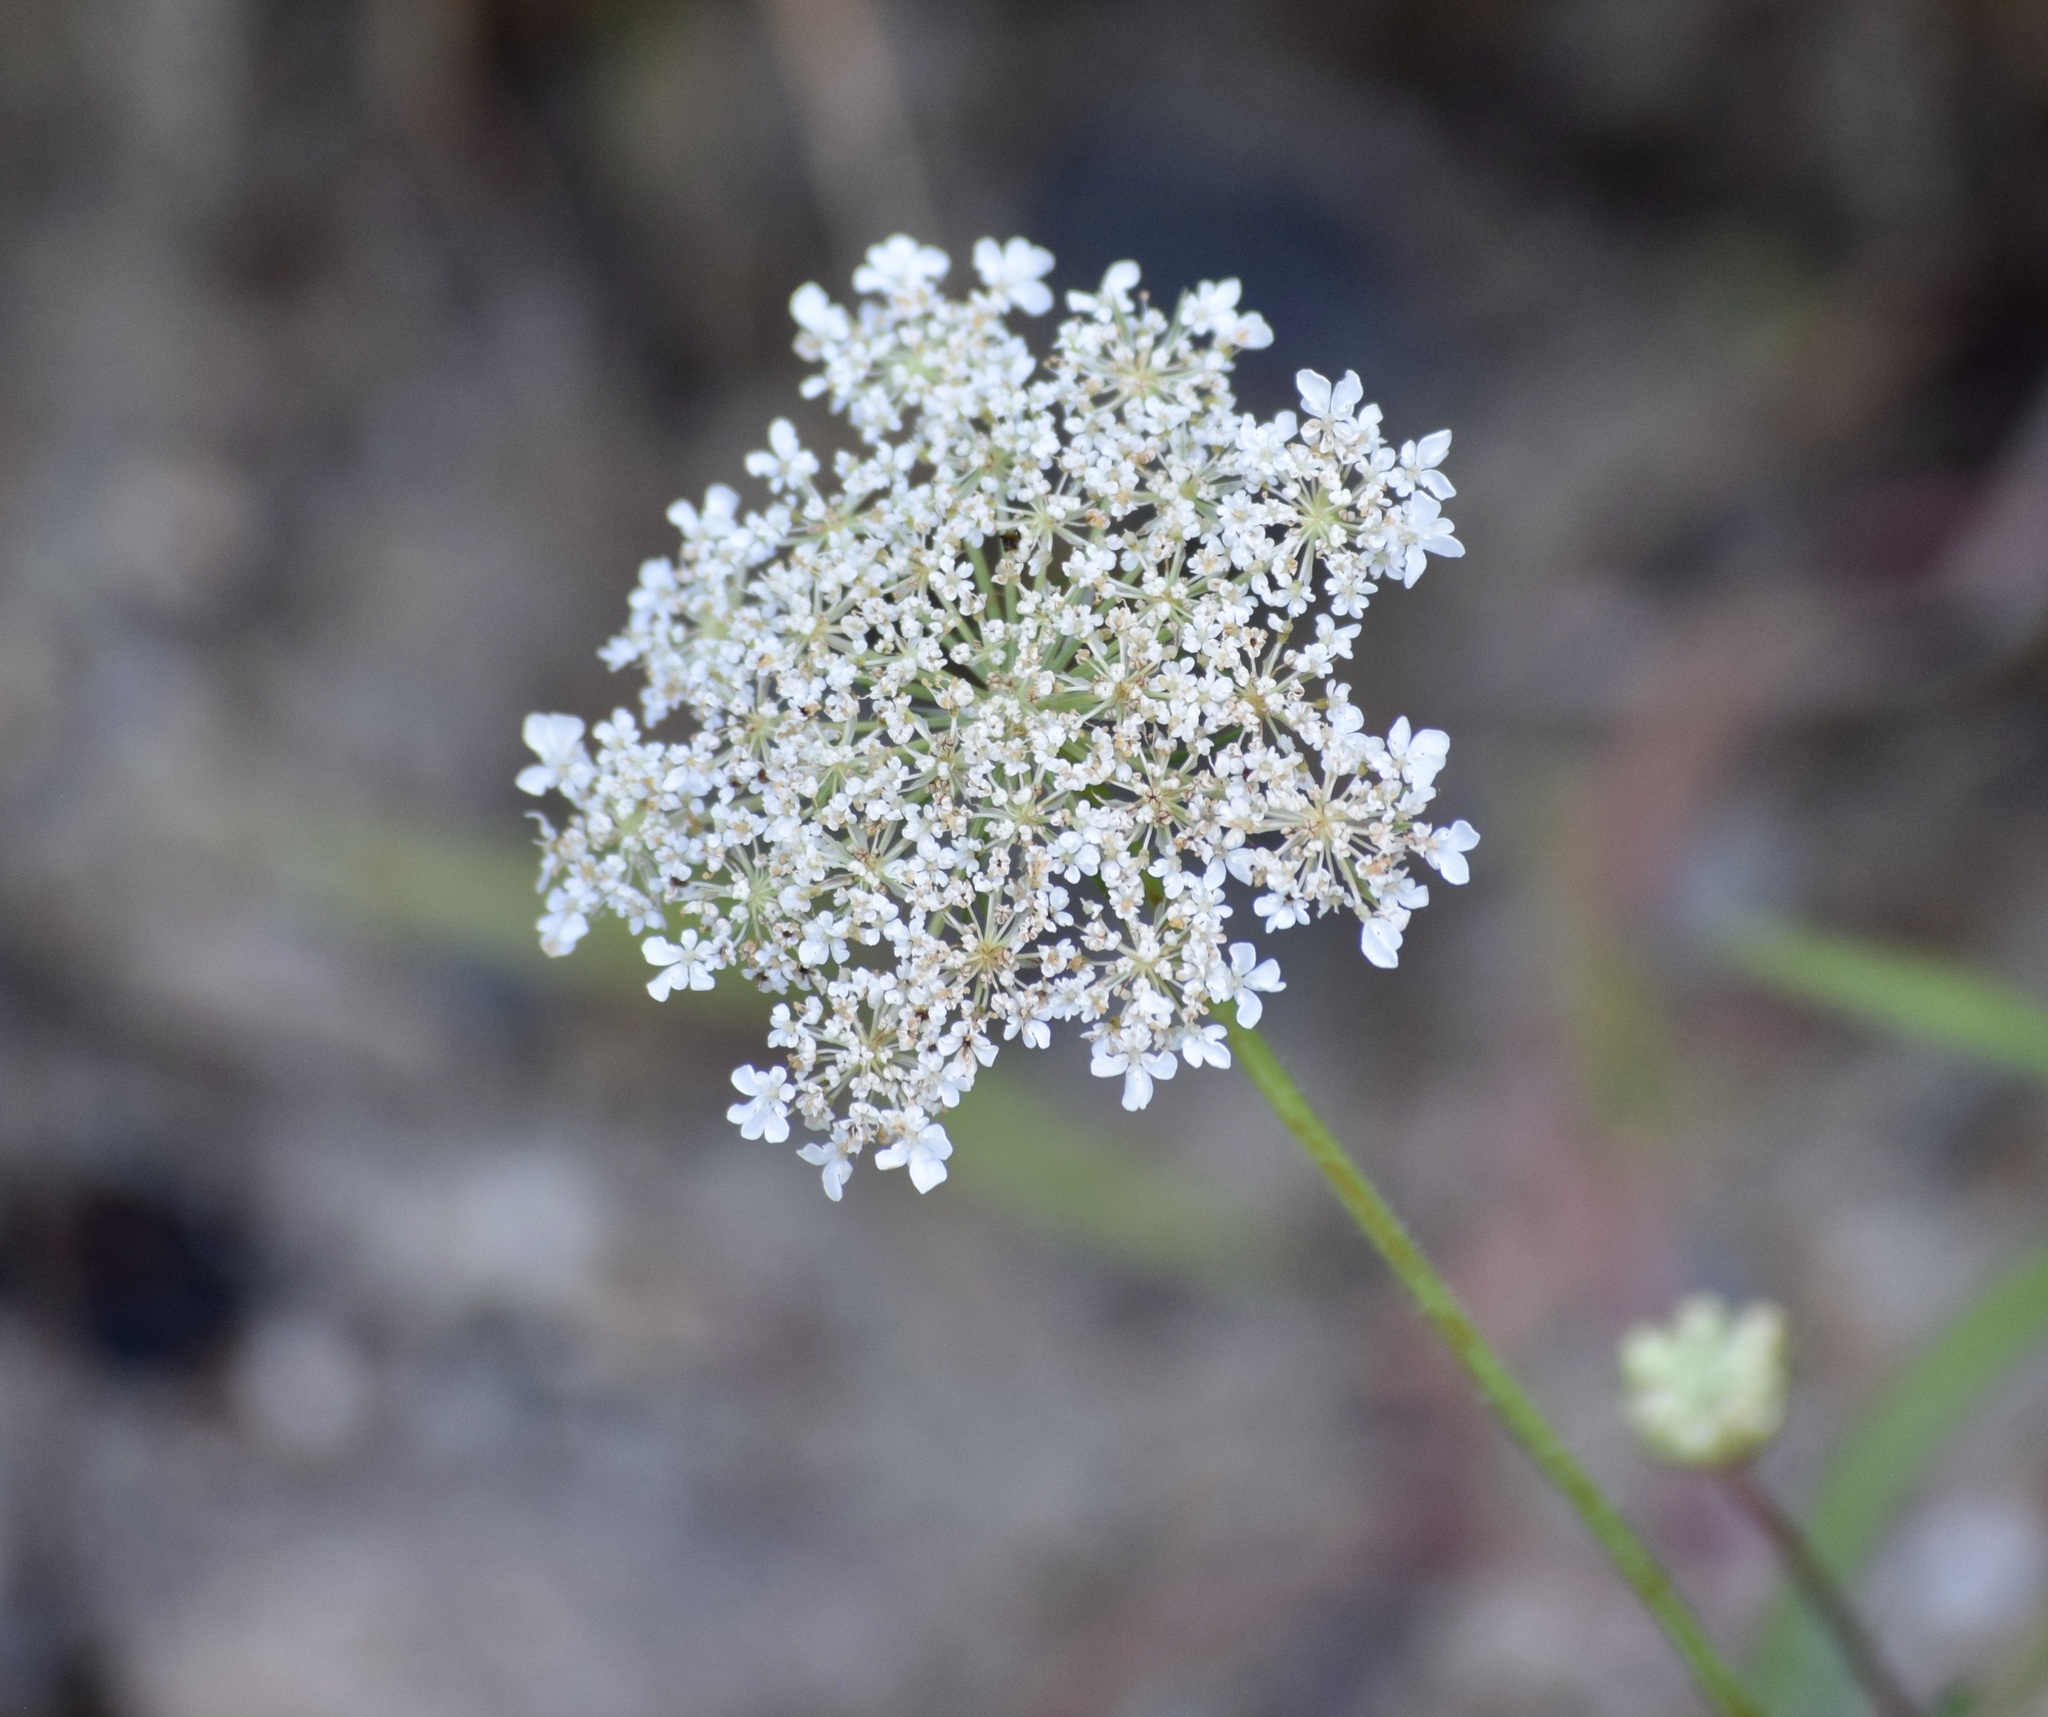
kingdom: Plantae
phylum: Tracheophyta
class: Magnoliopsida
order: Apiales
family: Apiaceae
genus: Daucus
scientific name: Daucus carota
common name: Wild carrot
